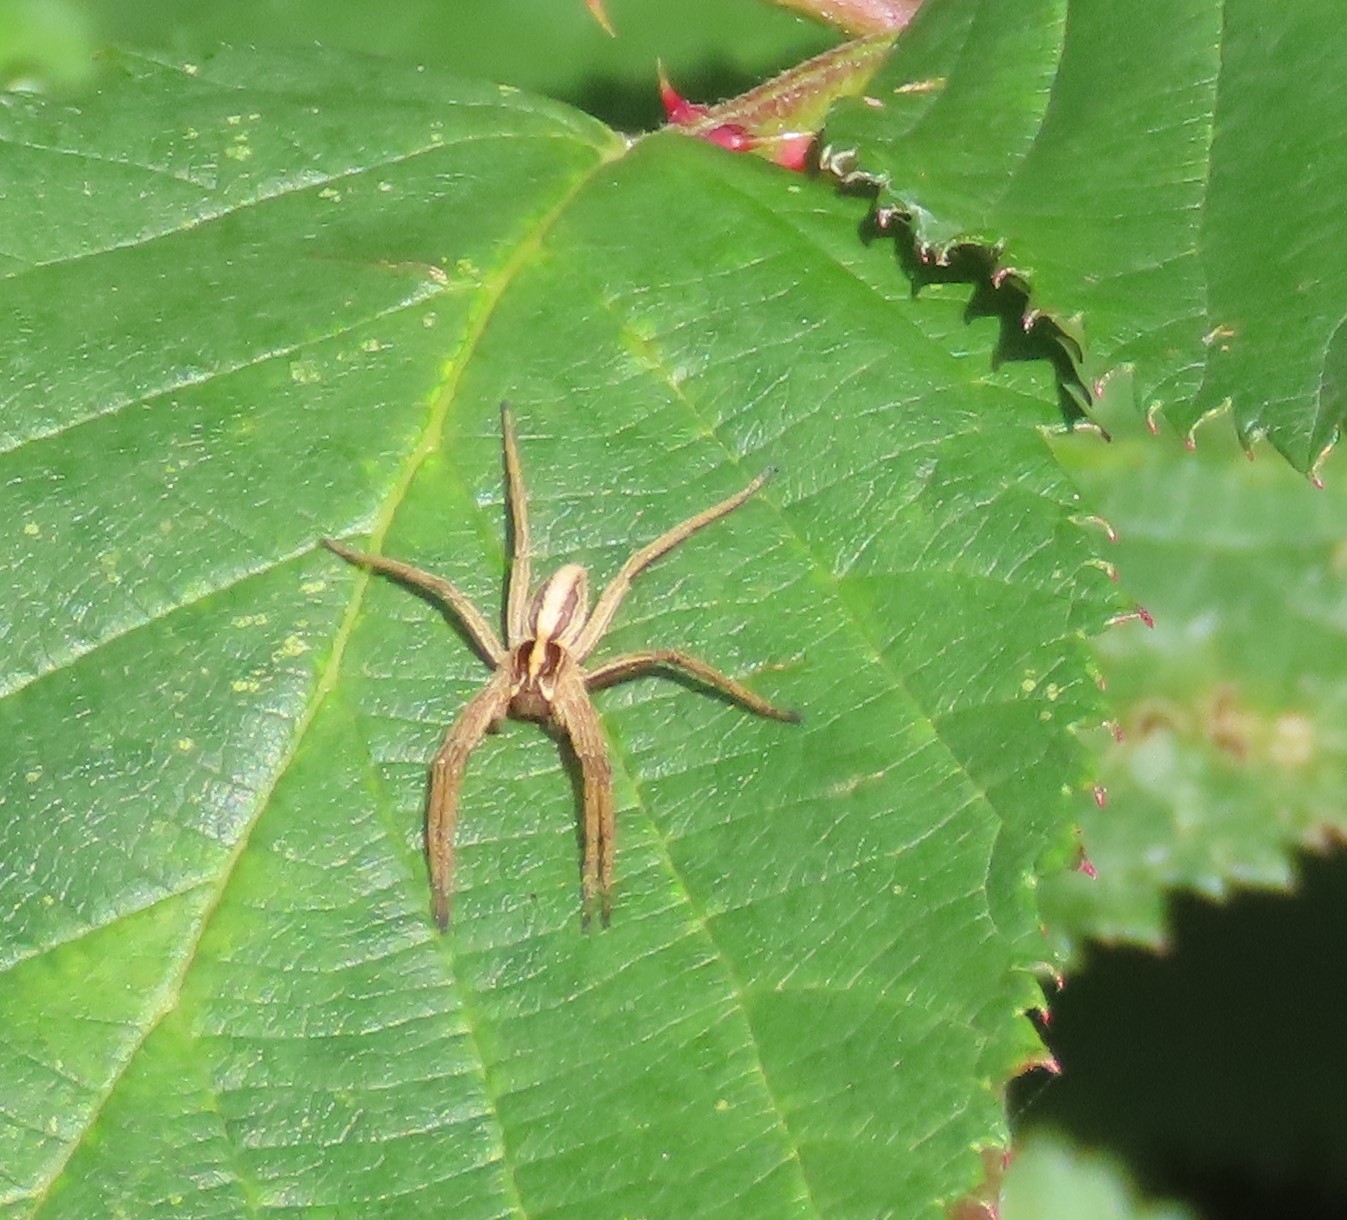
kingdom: Animalia
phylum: Arthropoda
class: Arachnida
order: Araneae
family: Pisauridae
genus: Pisaura
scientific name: Pisaura mirabilis
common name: Tent spider
